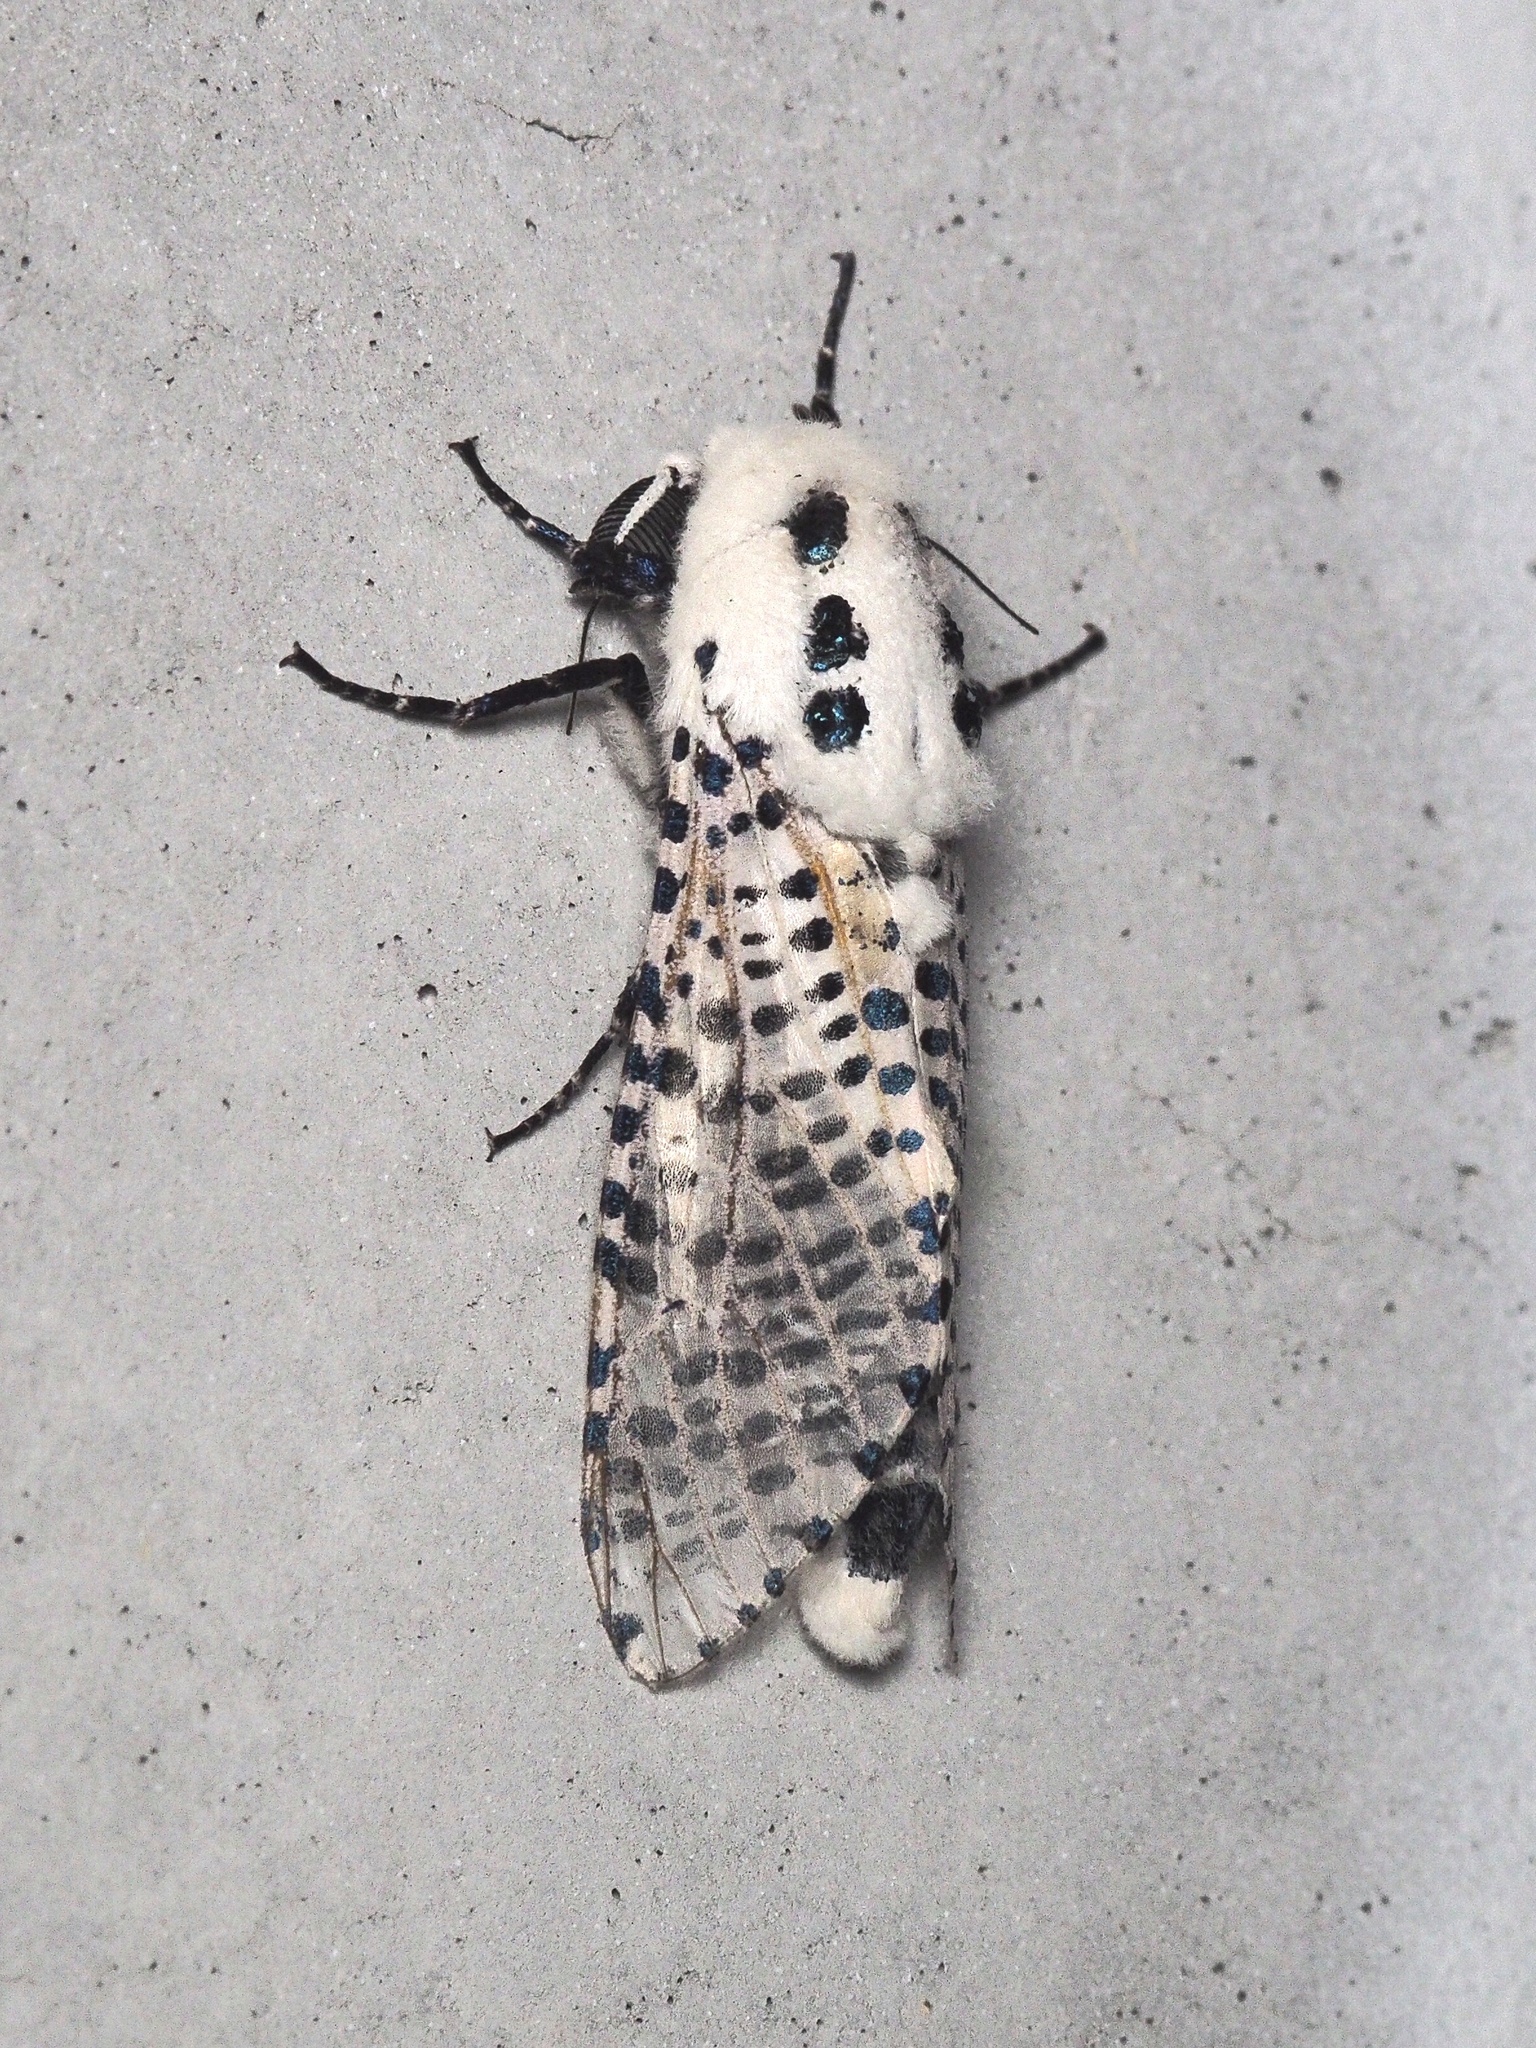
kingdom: Animalia
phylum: Arthropoda
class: Insecta
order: Lepidoptera
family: Cossidae
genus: Zeuzera
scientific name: Zeuzera pyrina
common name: Leopard moth
